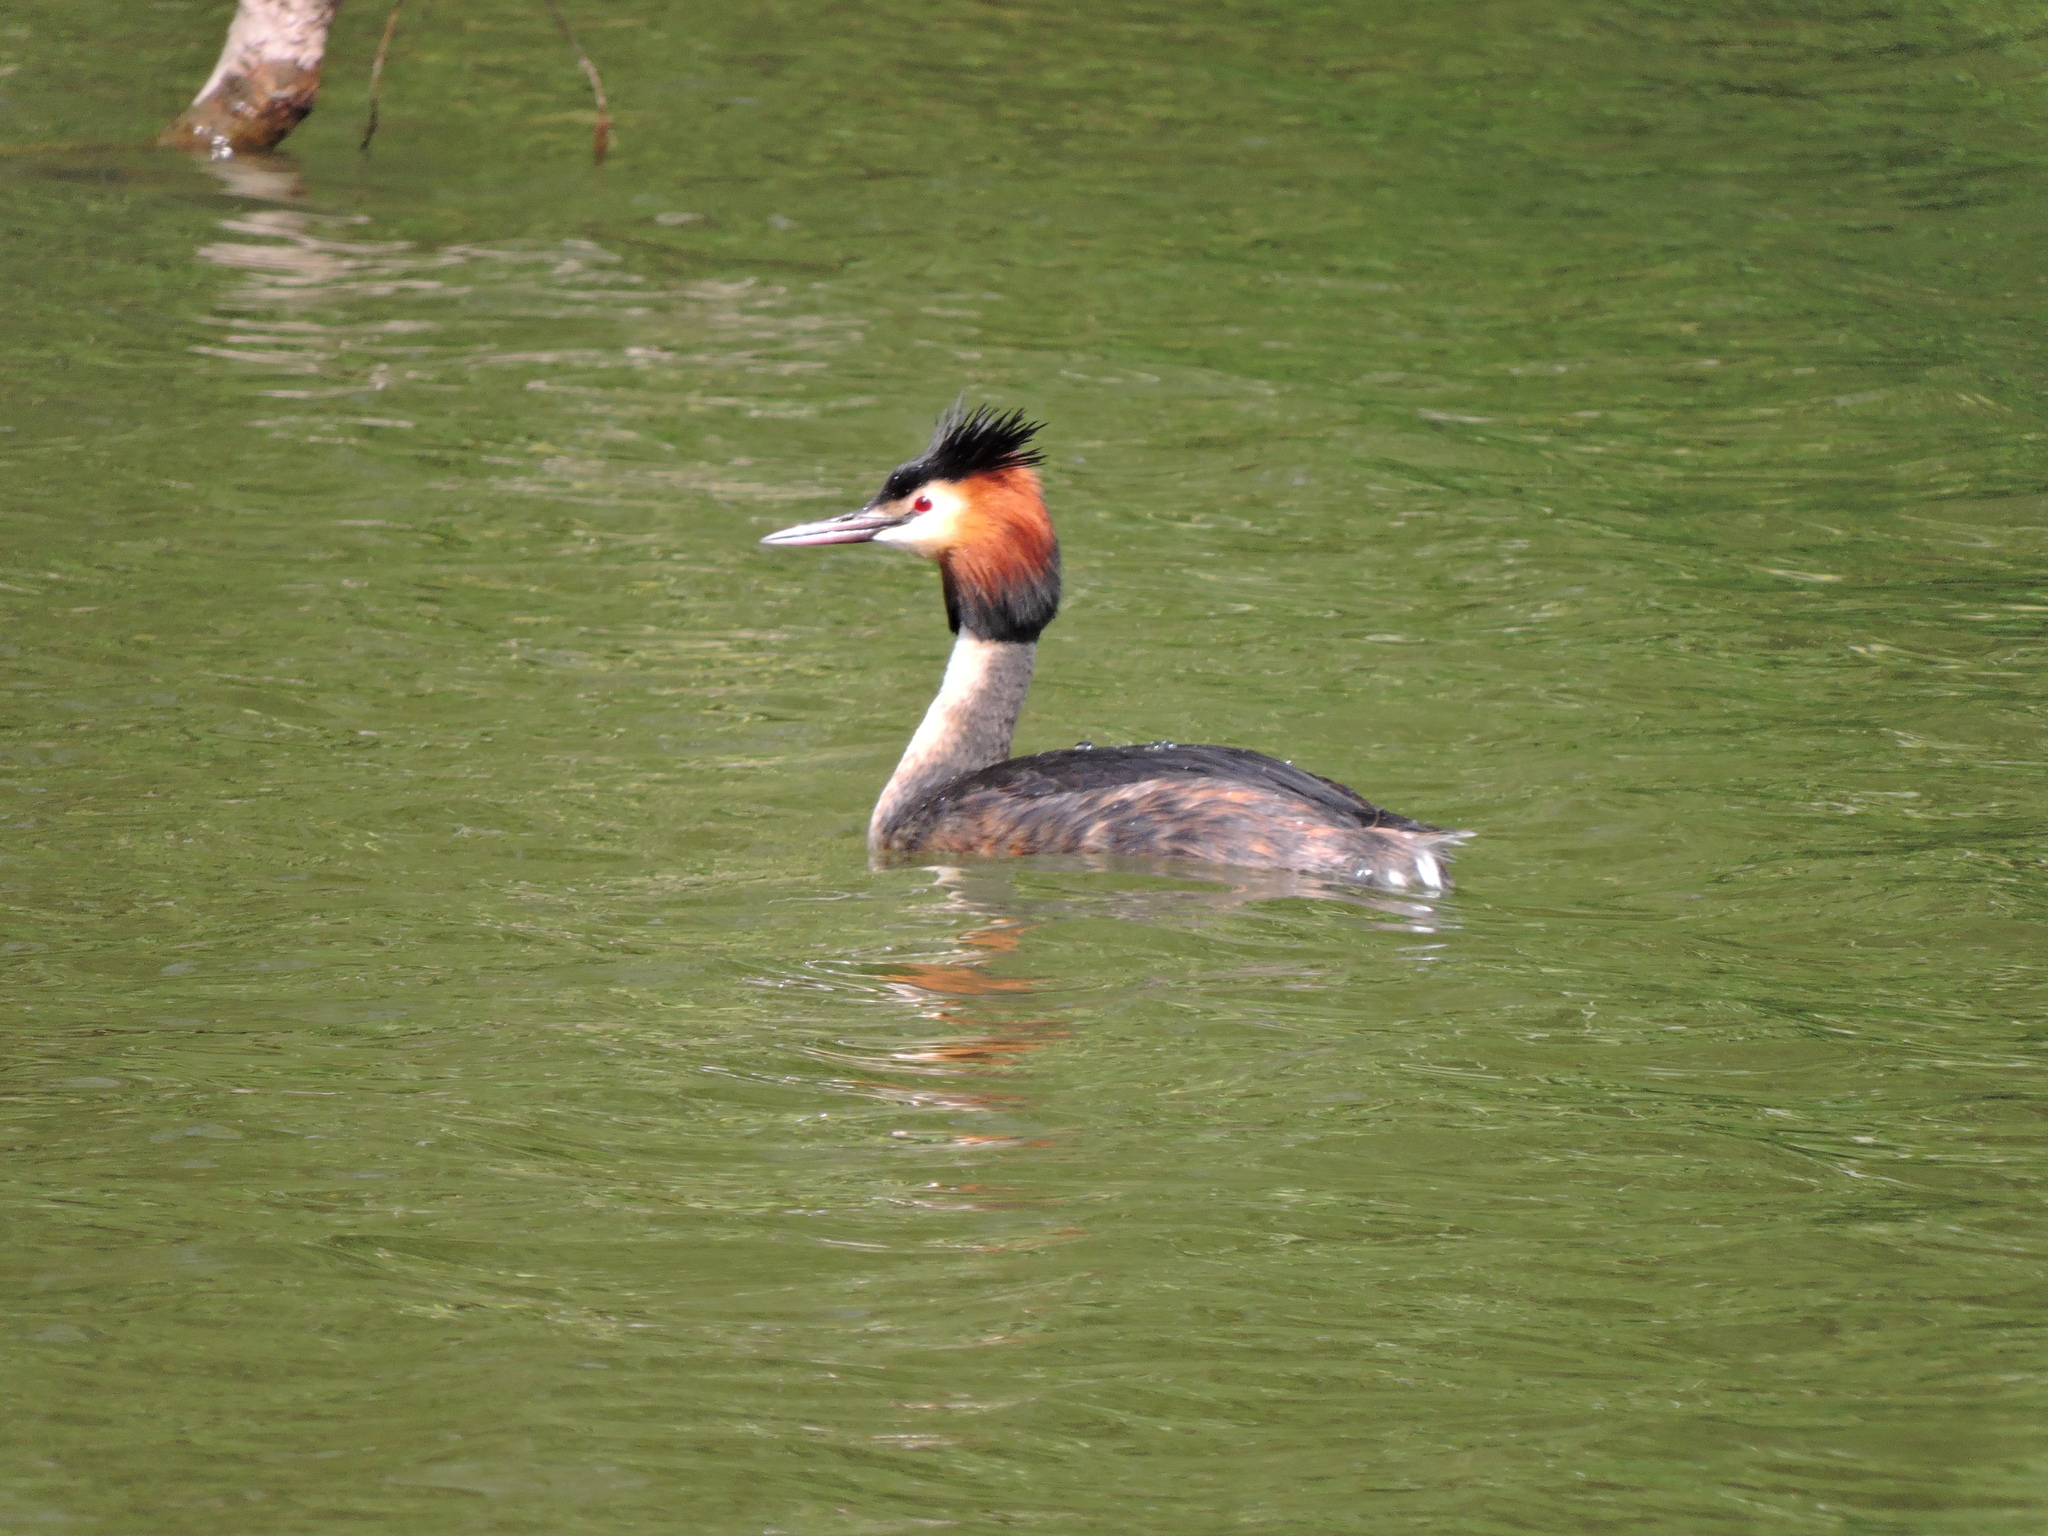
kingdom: Animalia
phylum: Chordata
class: Aves
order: Podicipediformes
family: Podicipedidae
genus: Podiceps
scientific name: Podiceps cristatus
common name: Great crested grebe
